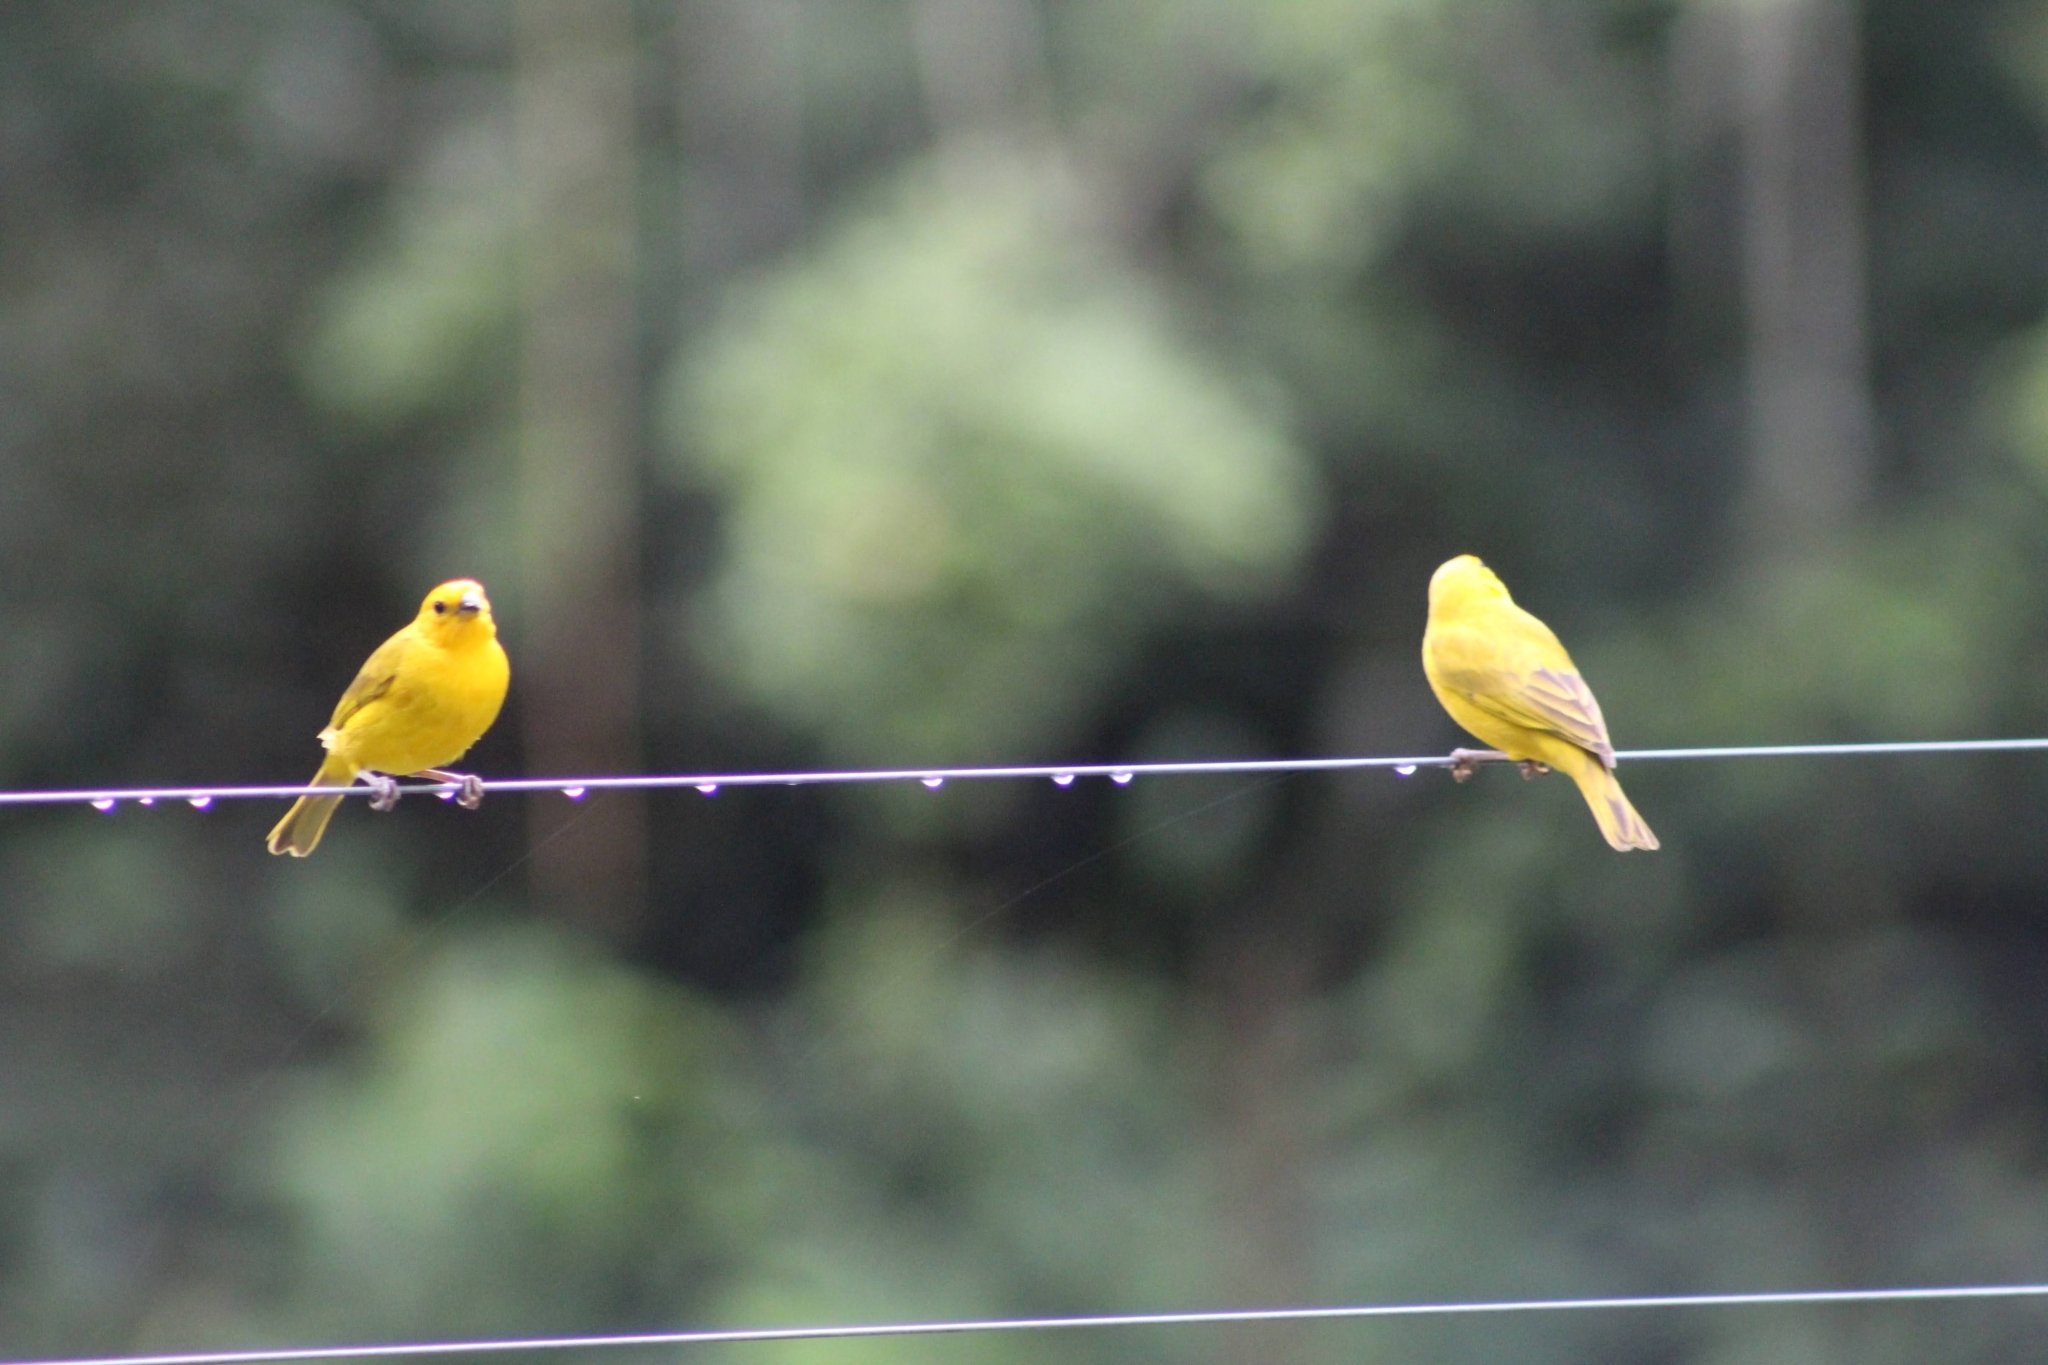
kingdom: Animalia
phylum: Chordata
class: Aves
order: Passeriformes
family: Thraupidae
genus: Sicalis
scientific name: Sicalis flaveola
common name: Saffron finch
